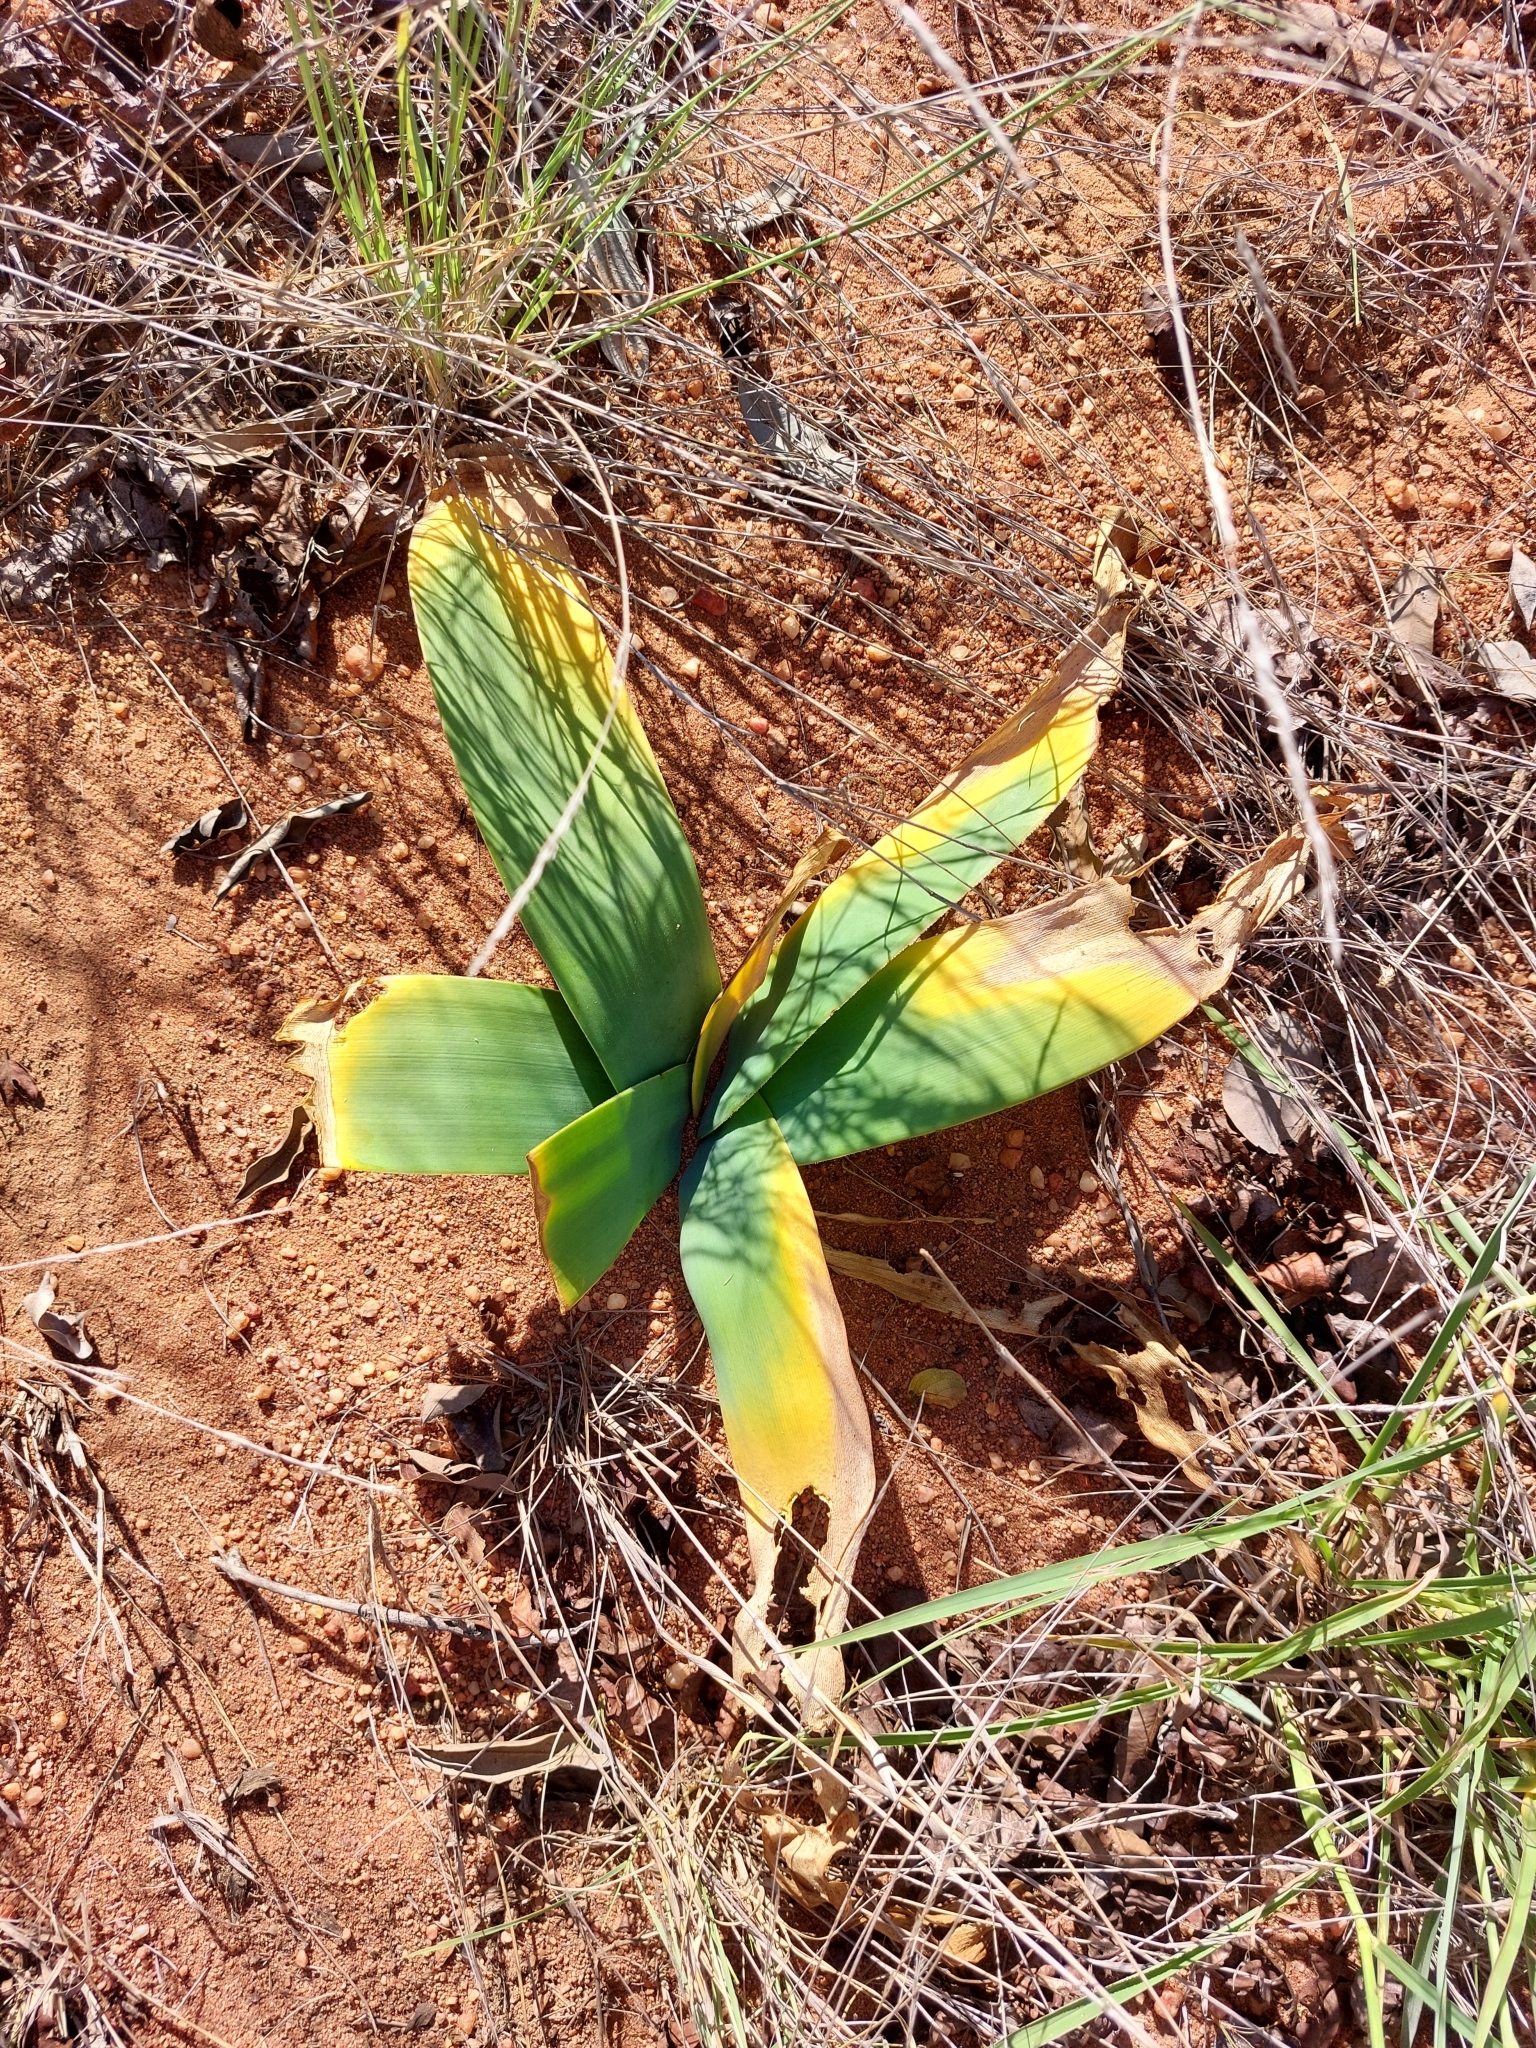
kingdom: Plantae
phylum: Tracheophyta
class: Liliopsida
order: Asparagales
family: Amaryllidaceae
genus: Ammocharis
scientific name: Ammocharis coranica
